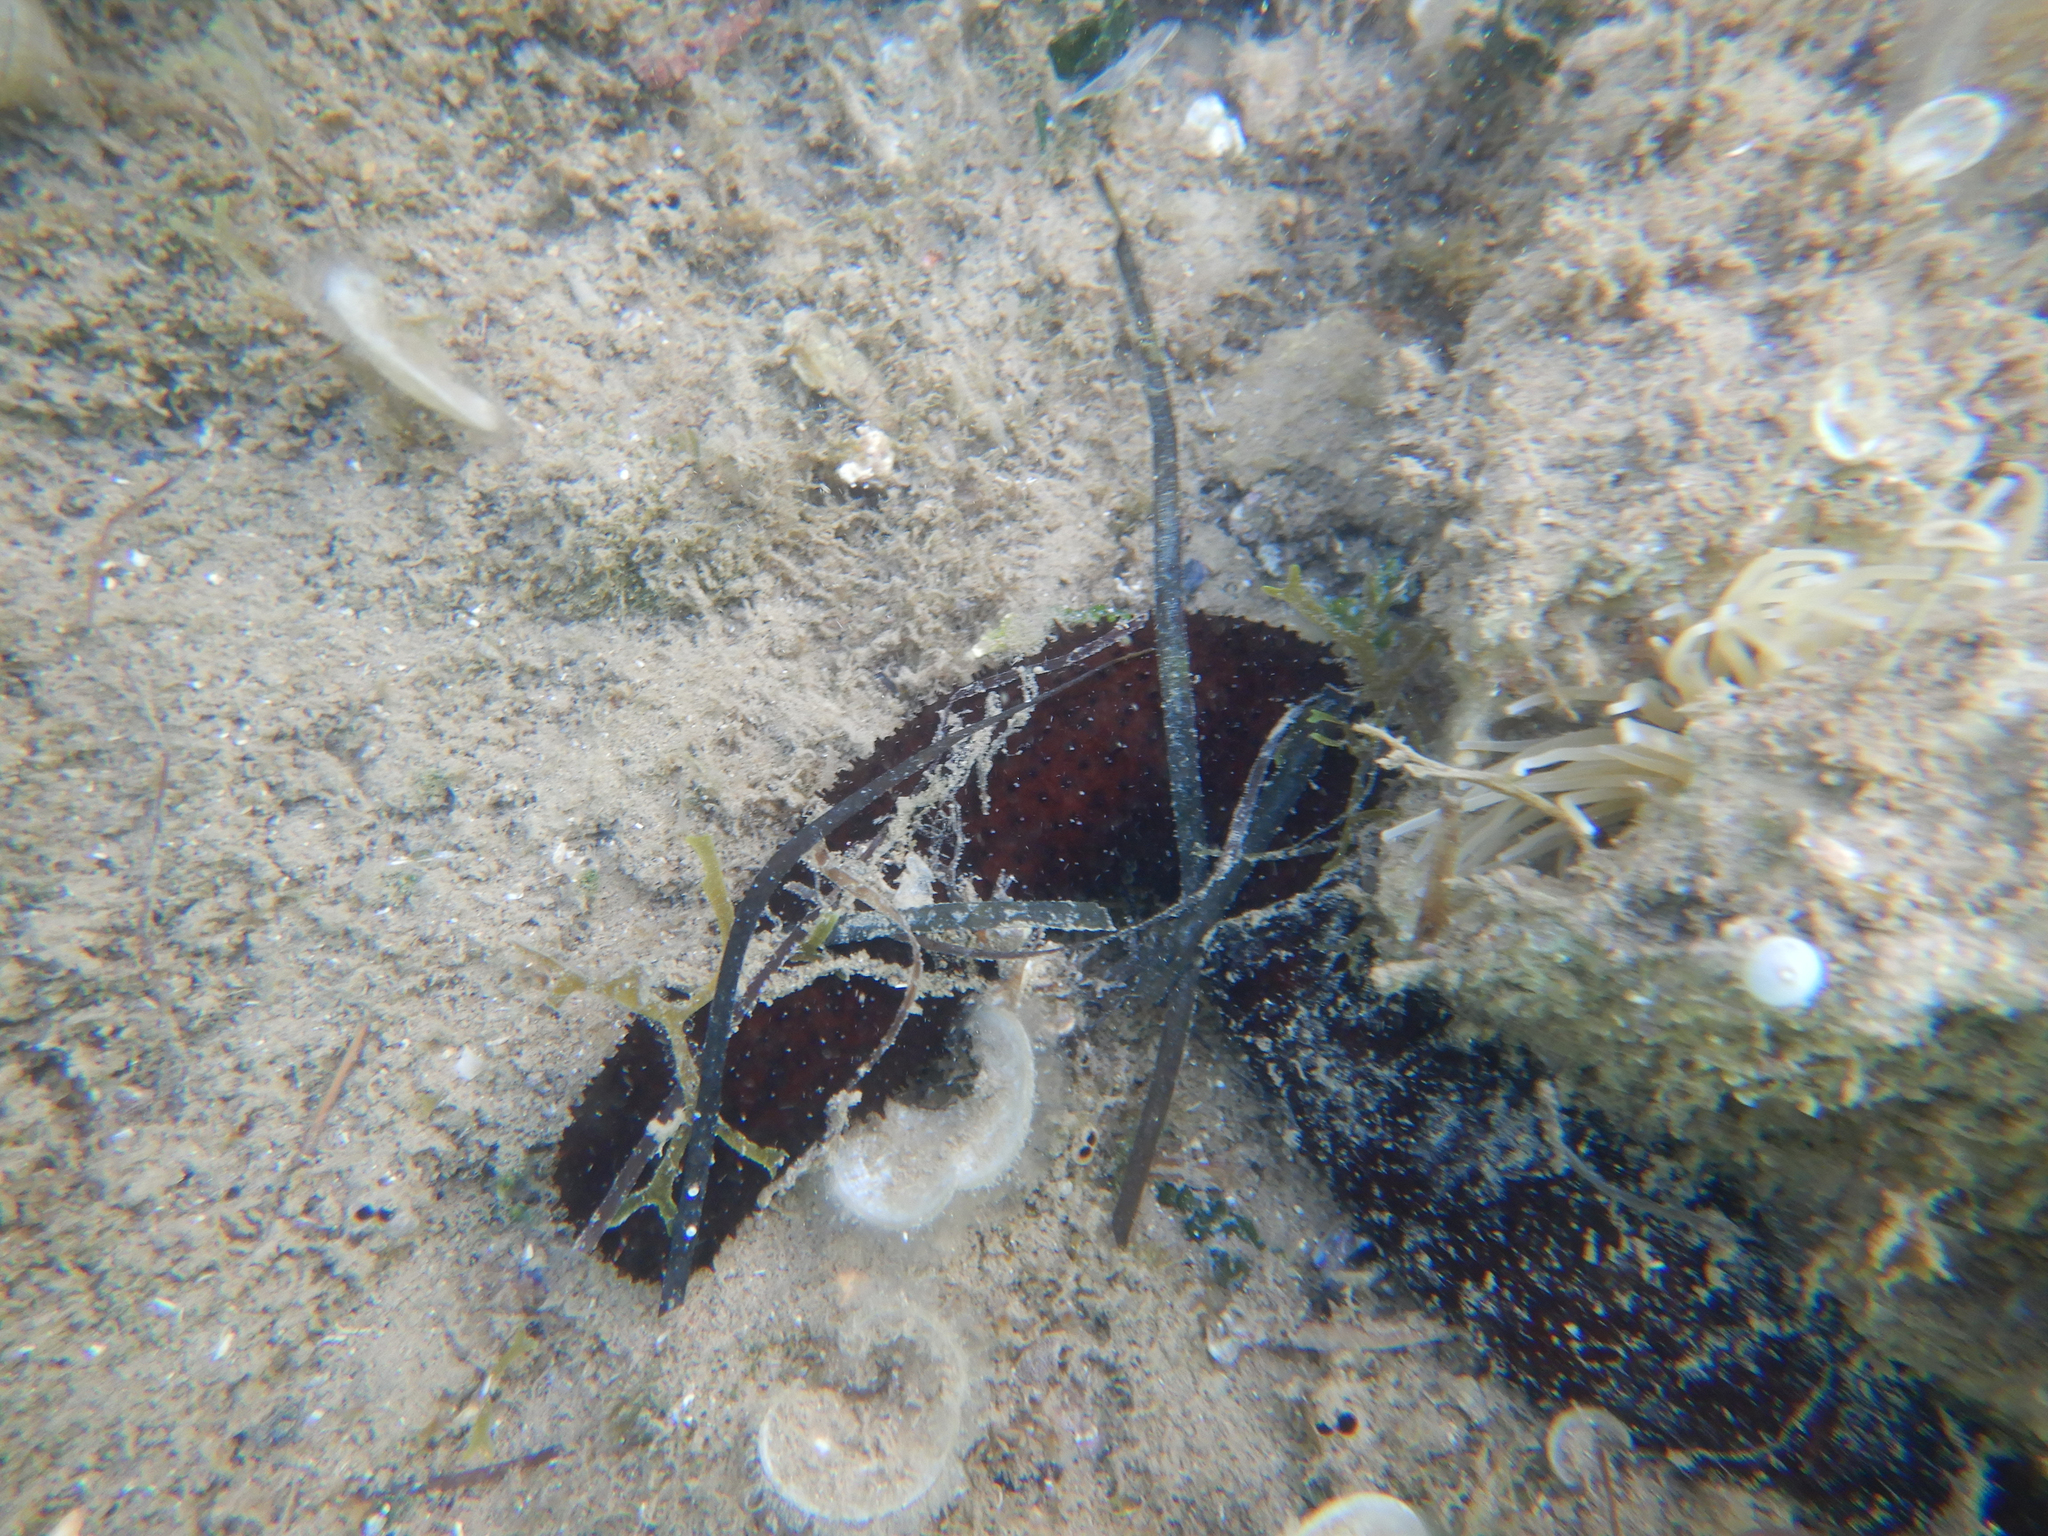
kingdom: Animalia
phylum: Echinodermata
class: Holothuroidea
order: Holothuriida
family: Holothuriidae
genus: Holothuria
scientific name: Holothuria poli
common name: White spot cucumber
